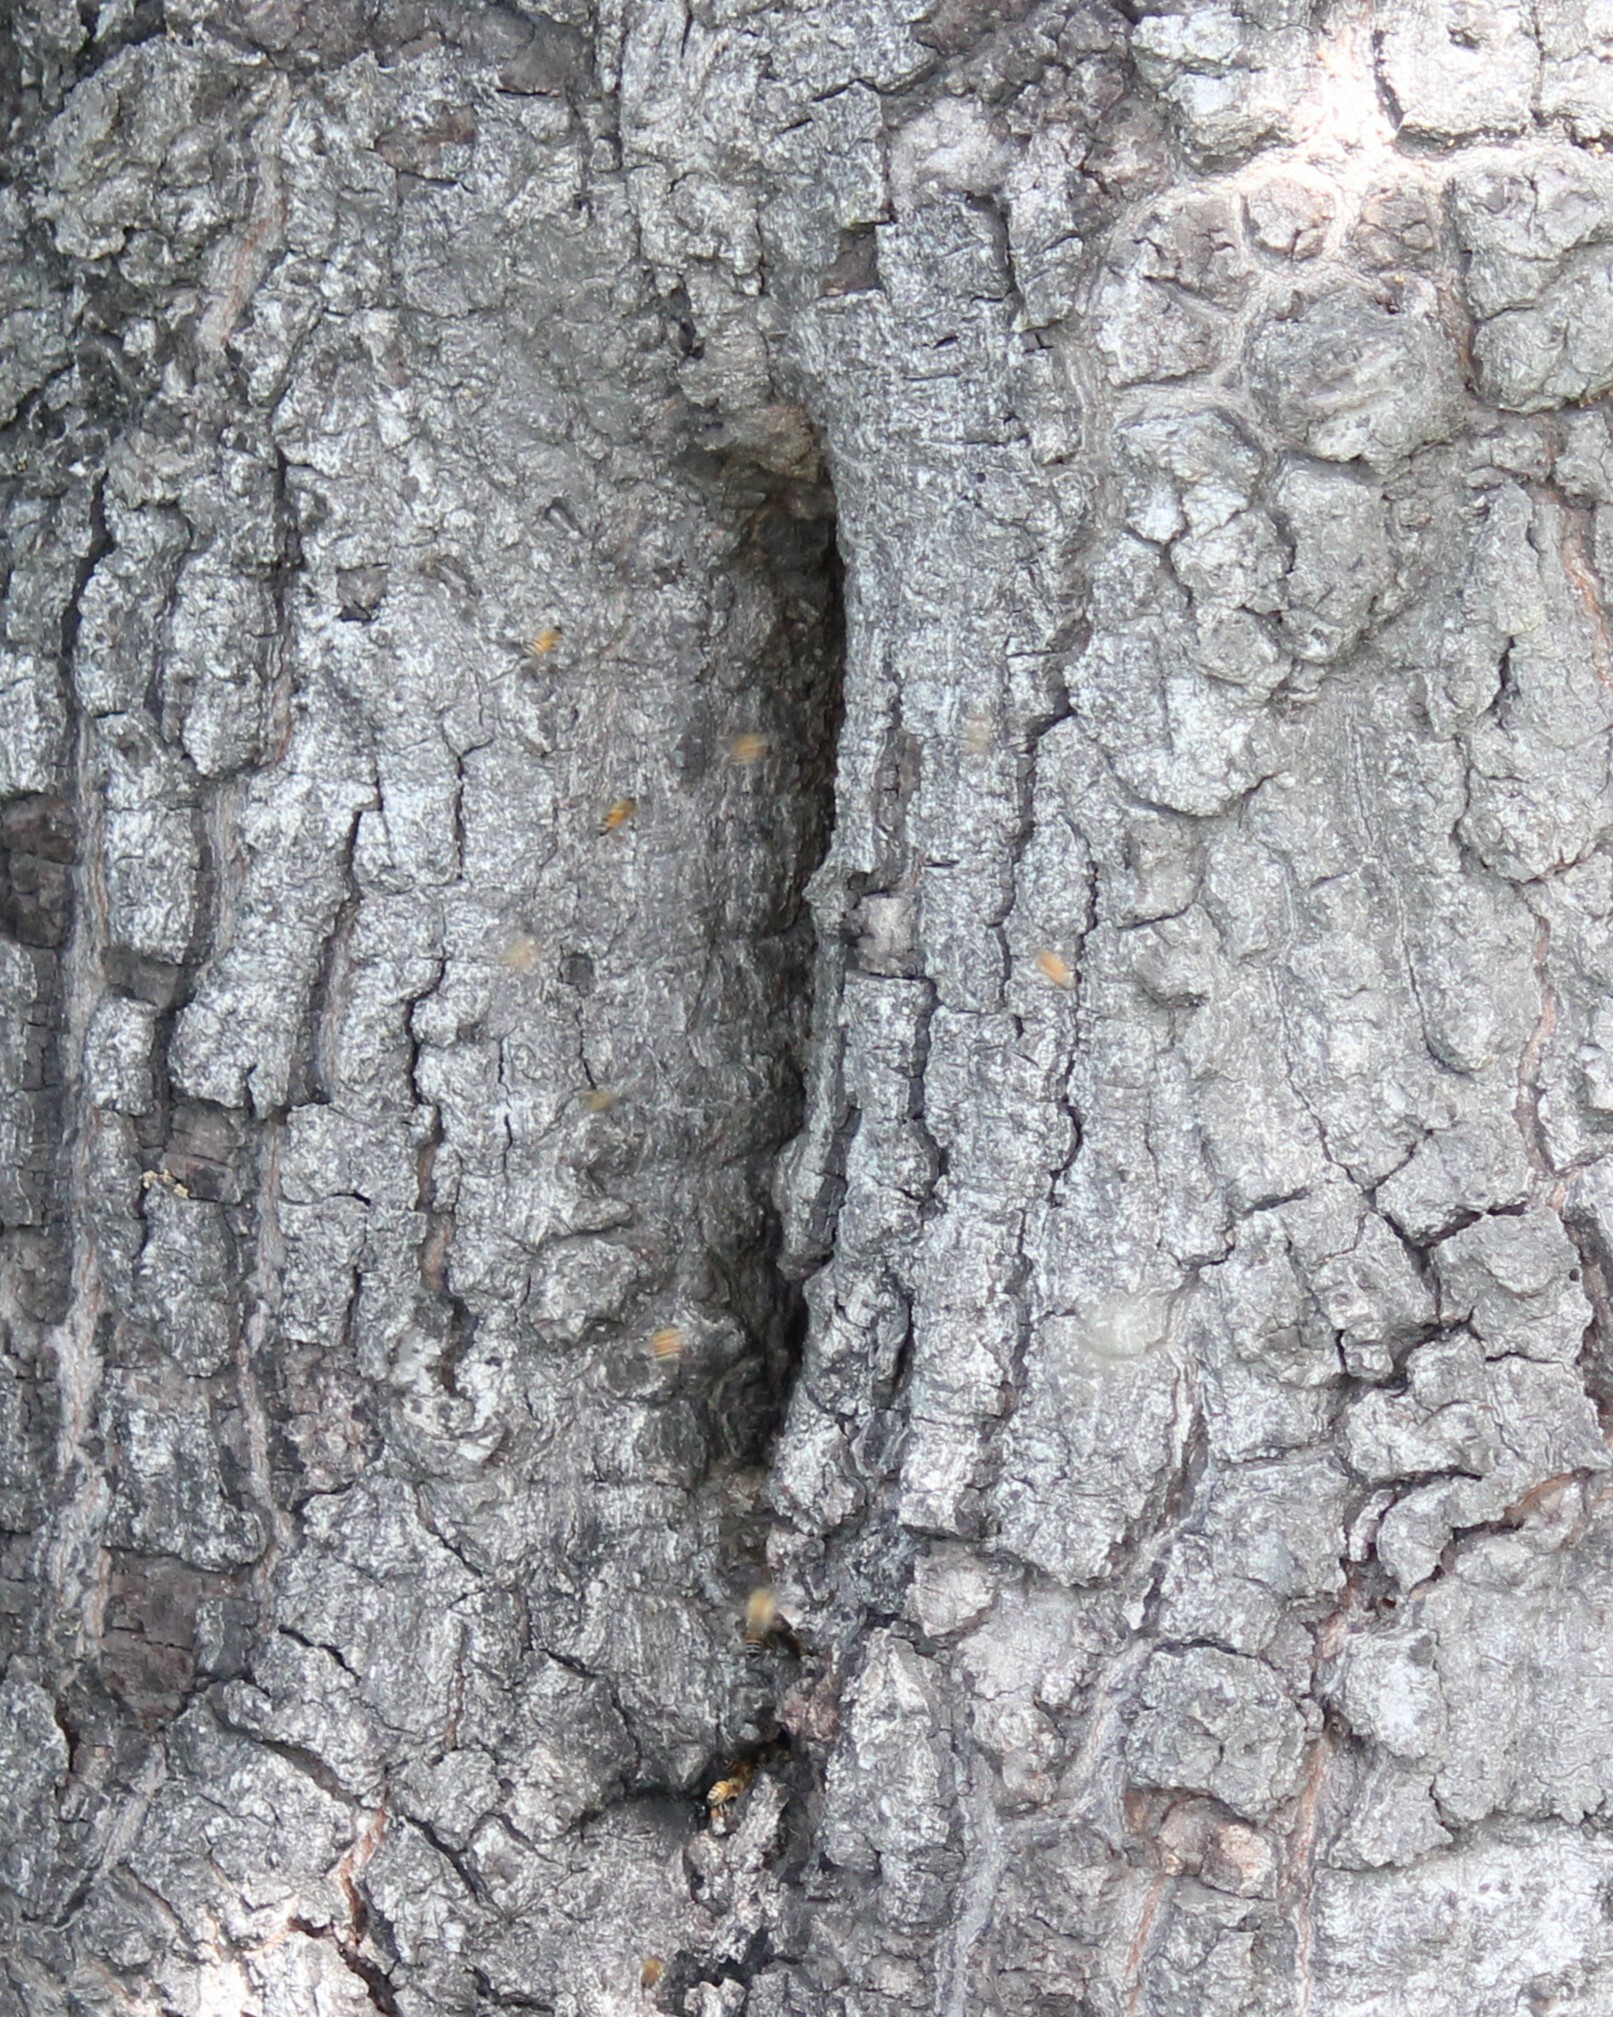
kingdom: Animalia
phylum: Arthropoda
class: Insecta
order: Hymenoptera
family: Apidae
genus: Apis
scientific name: Apis mellifera
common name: Honey bee
